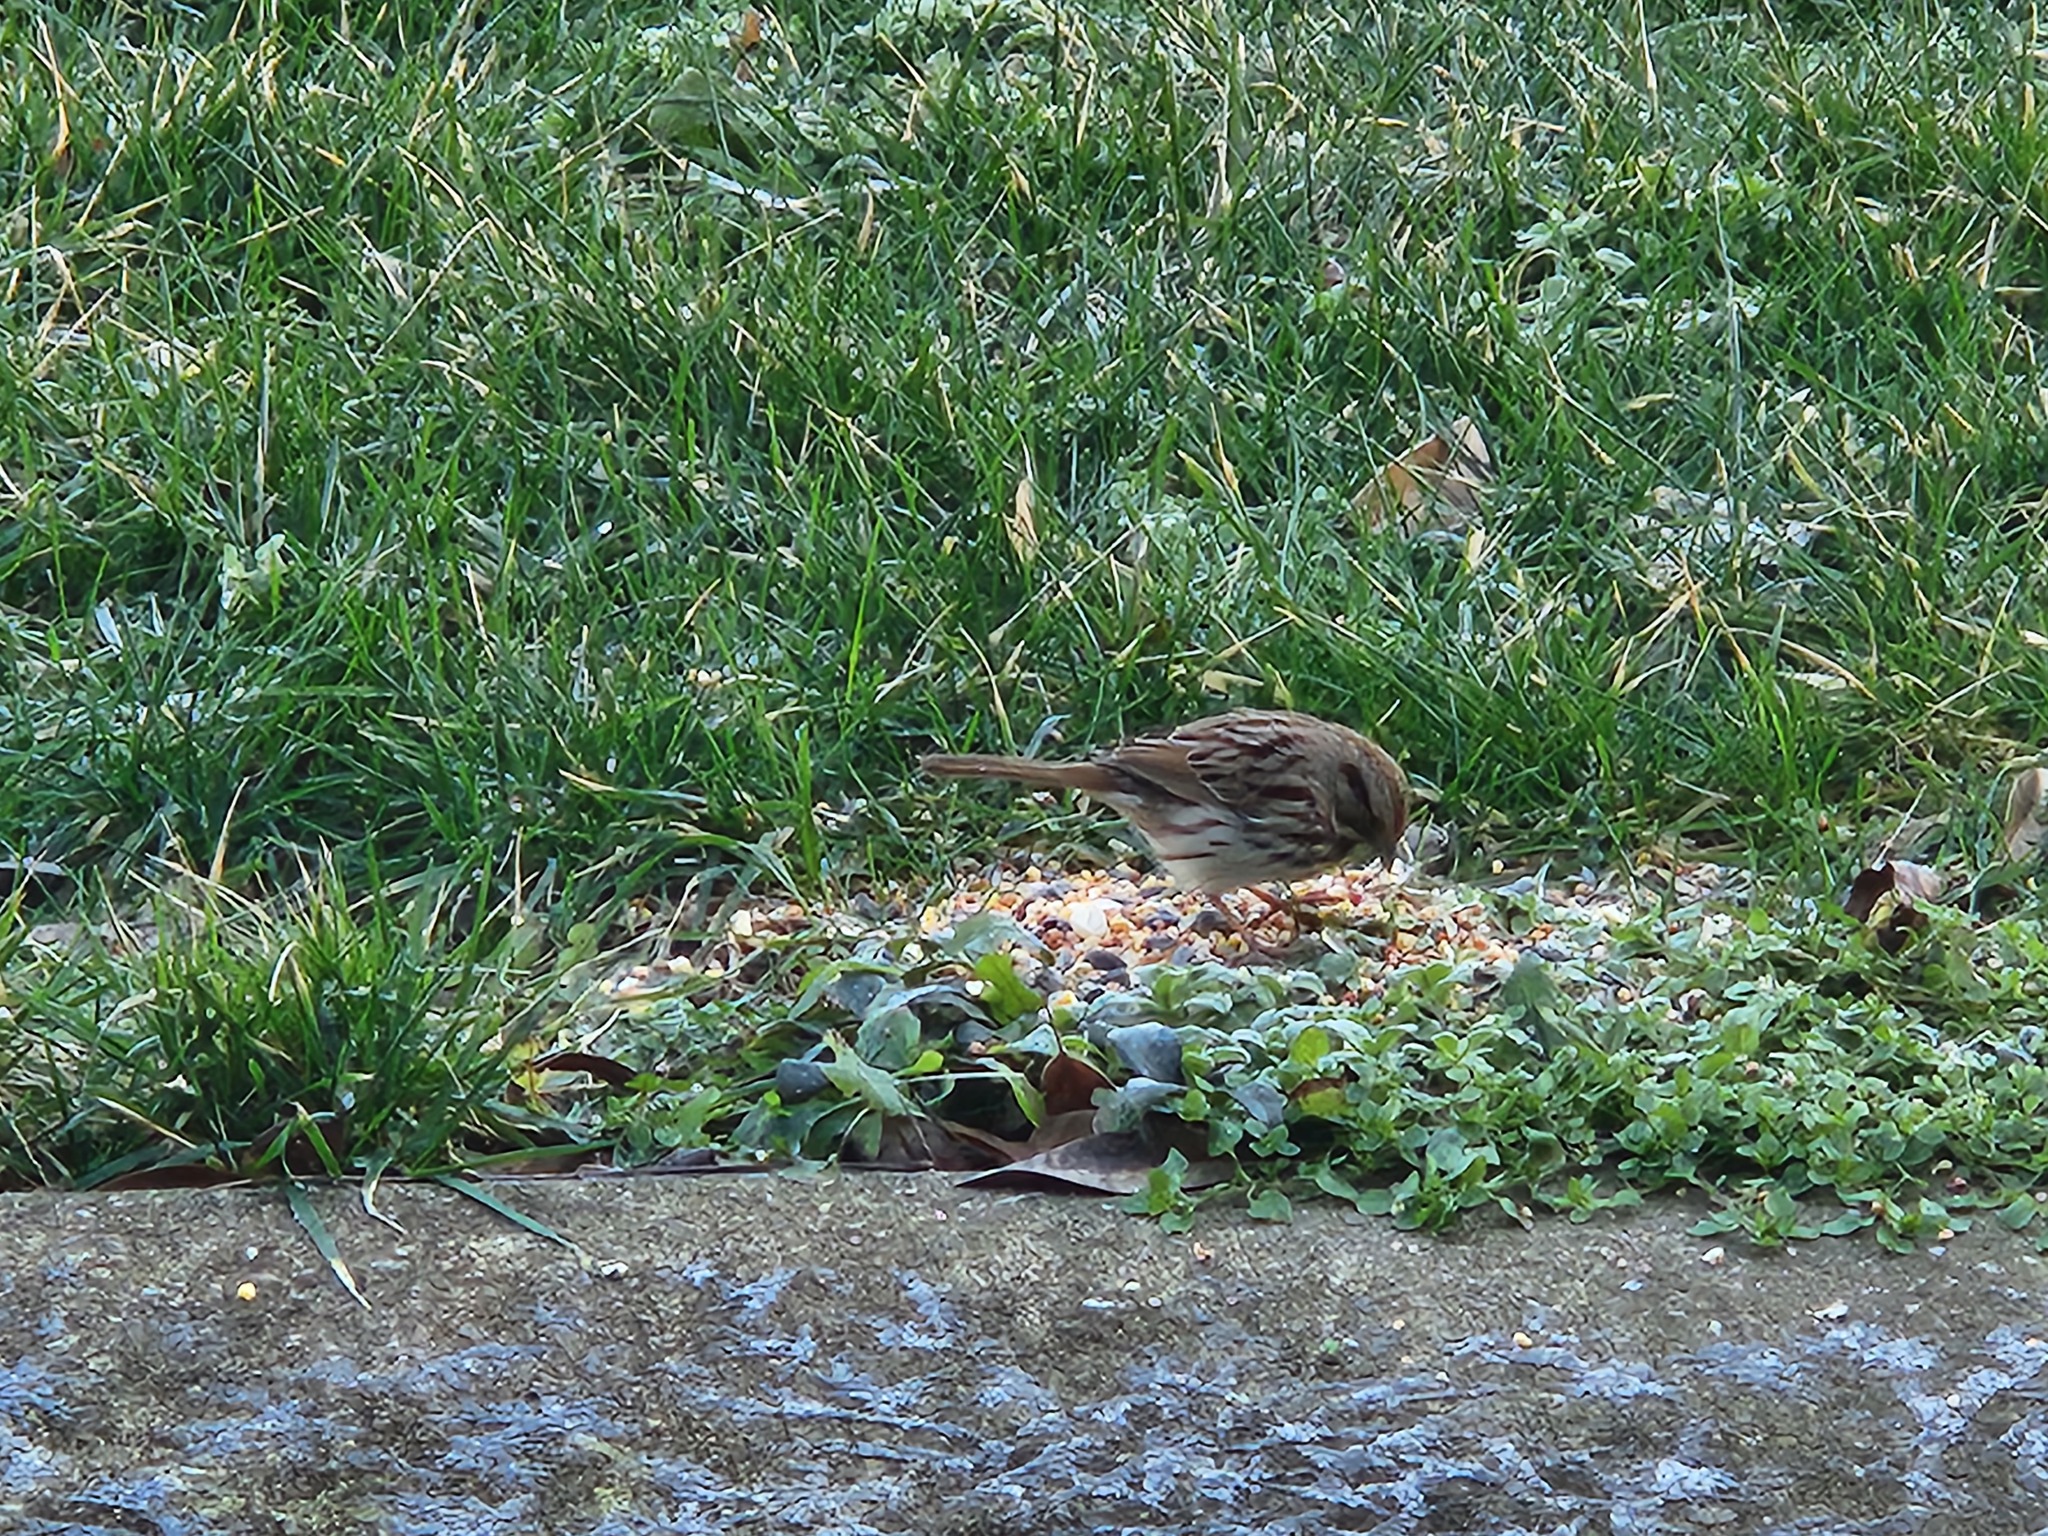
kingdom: Animalia
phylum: Chordata
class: Aves
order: Passeriformes
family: Passerellidae
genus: Melospiza
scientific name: Melospiza melodia
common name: Song sparrow
